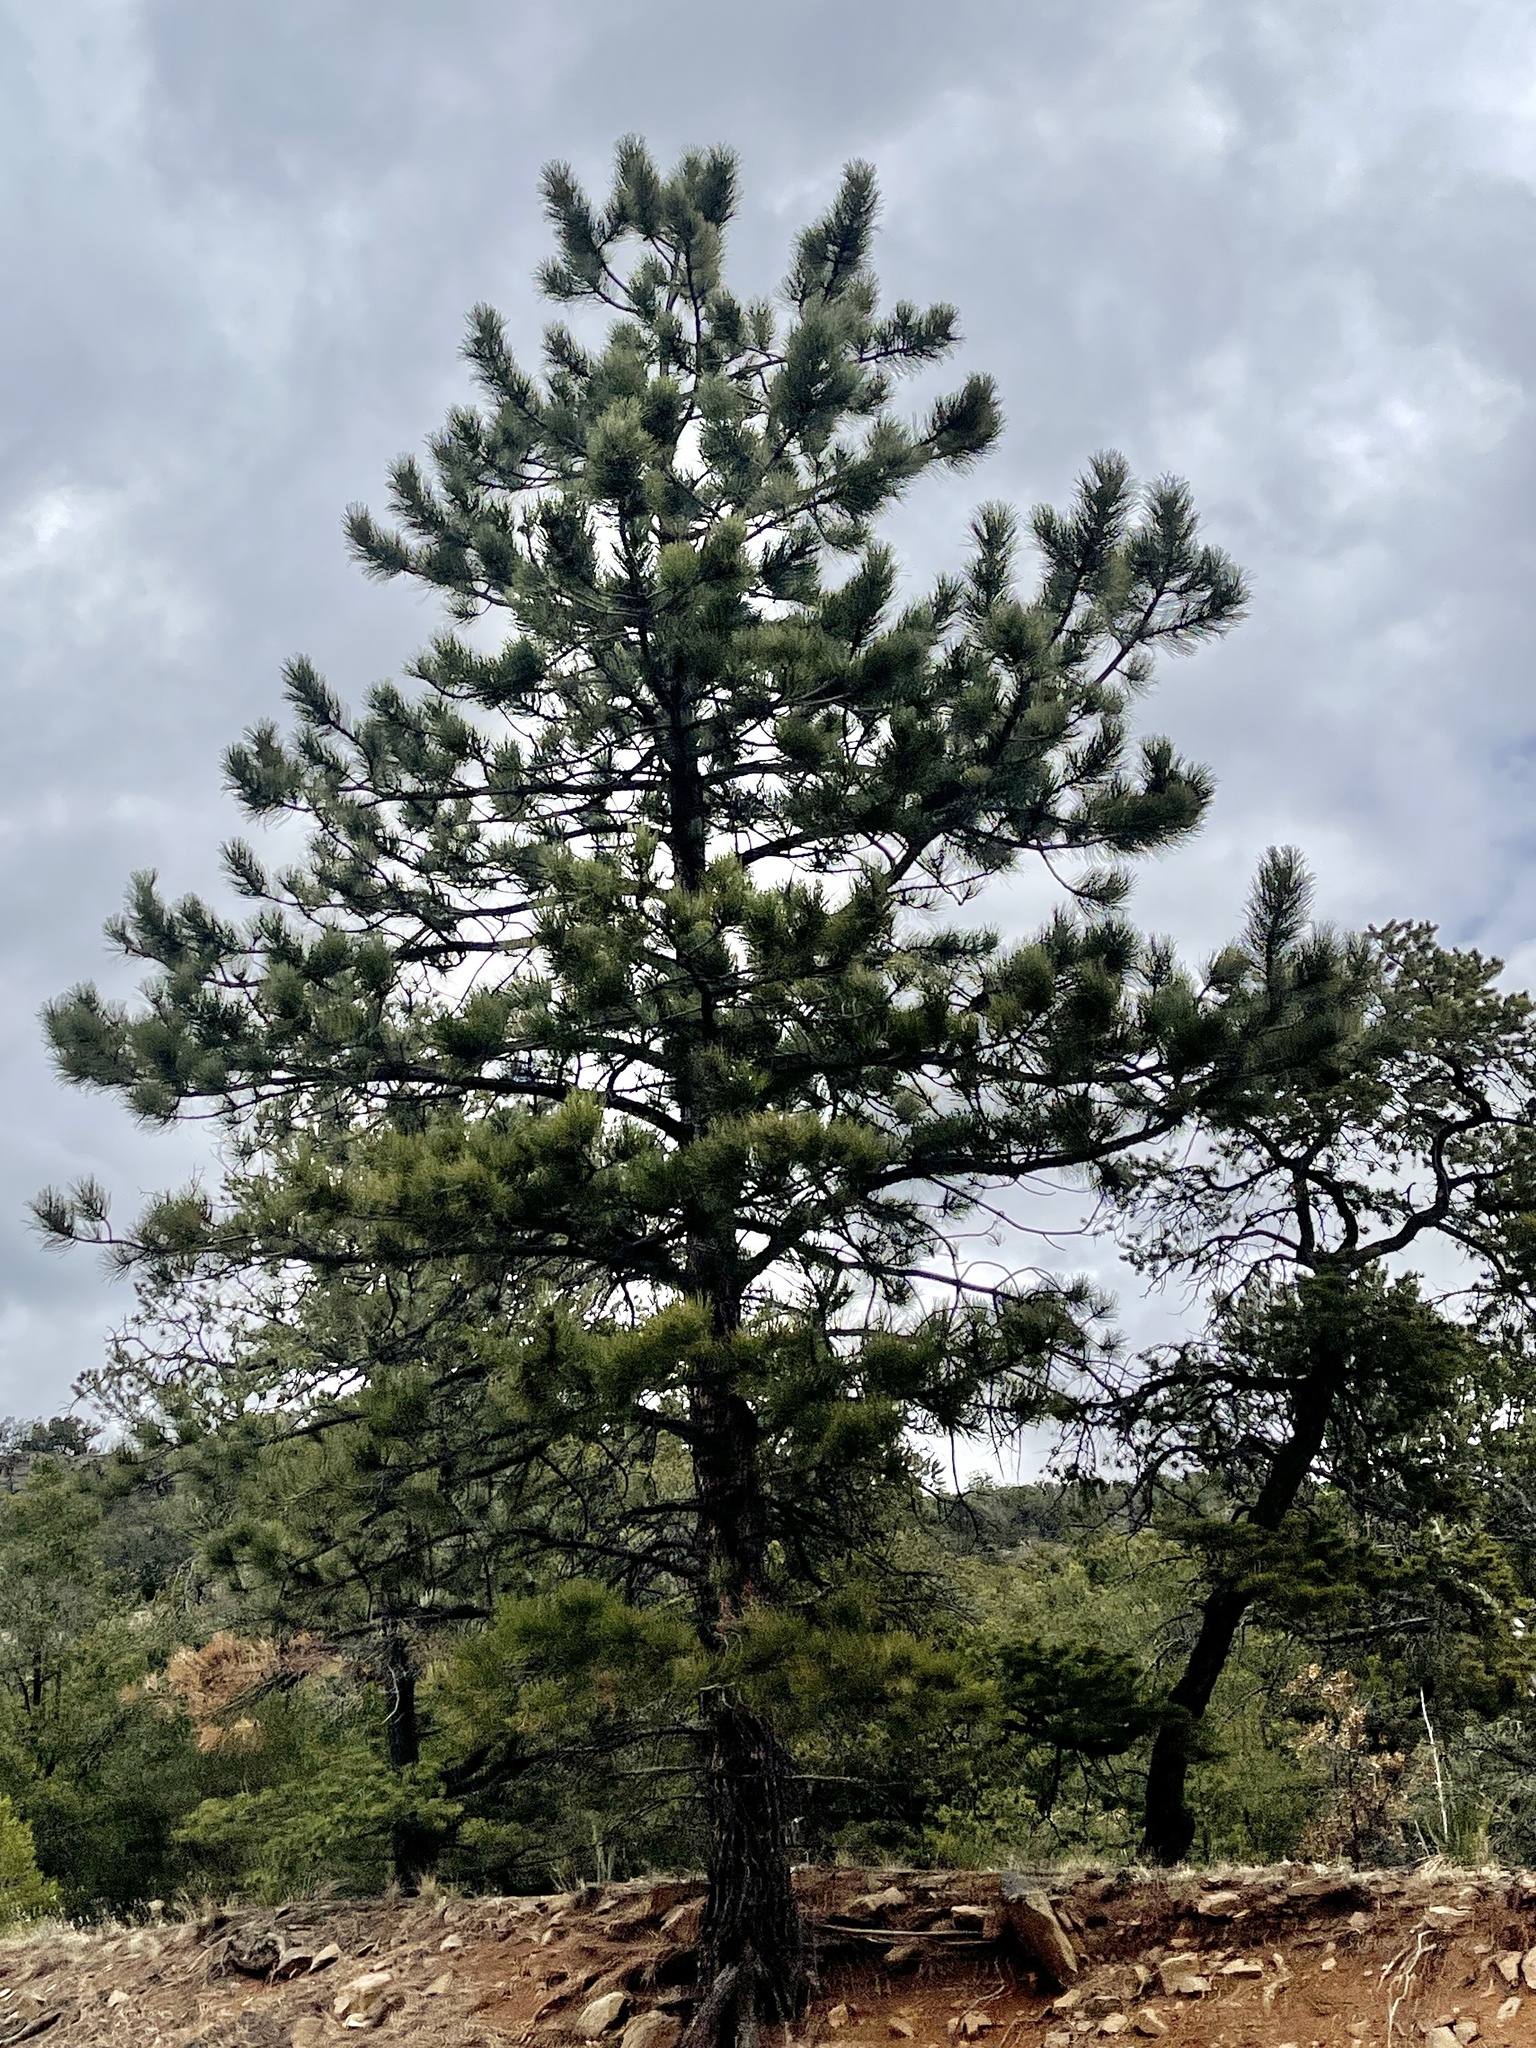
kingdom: Plantae
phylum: Tracheophyta
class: Pinopsida
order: Pinales
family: Pinaceae
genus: Pinus
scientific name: Pinus ponderosa
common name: Western yellow-pine
